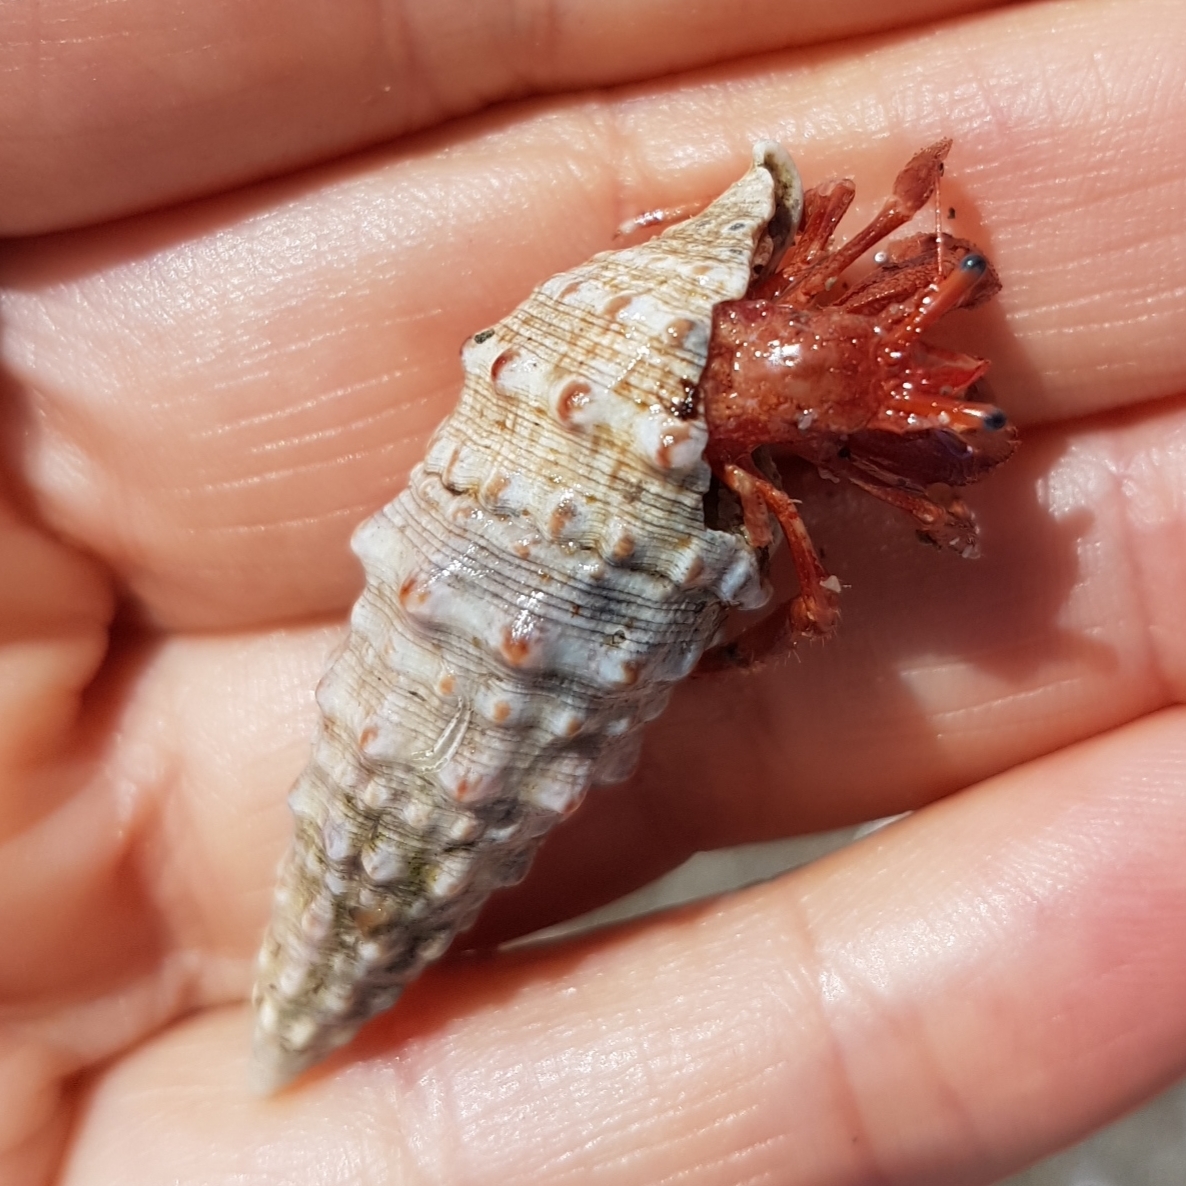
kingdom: Animalia
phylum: Mollusca
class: Gastropoda
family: Cerithiidae
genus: Cerithium
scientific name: Cerithium vulgatum
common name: European cerith
